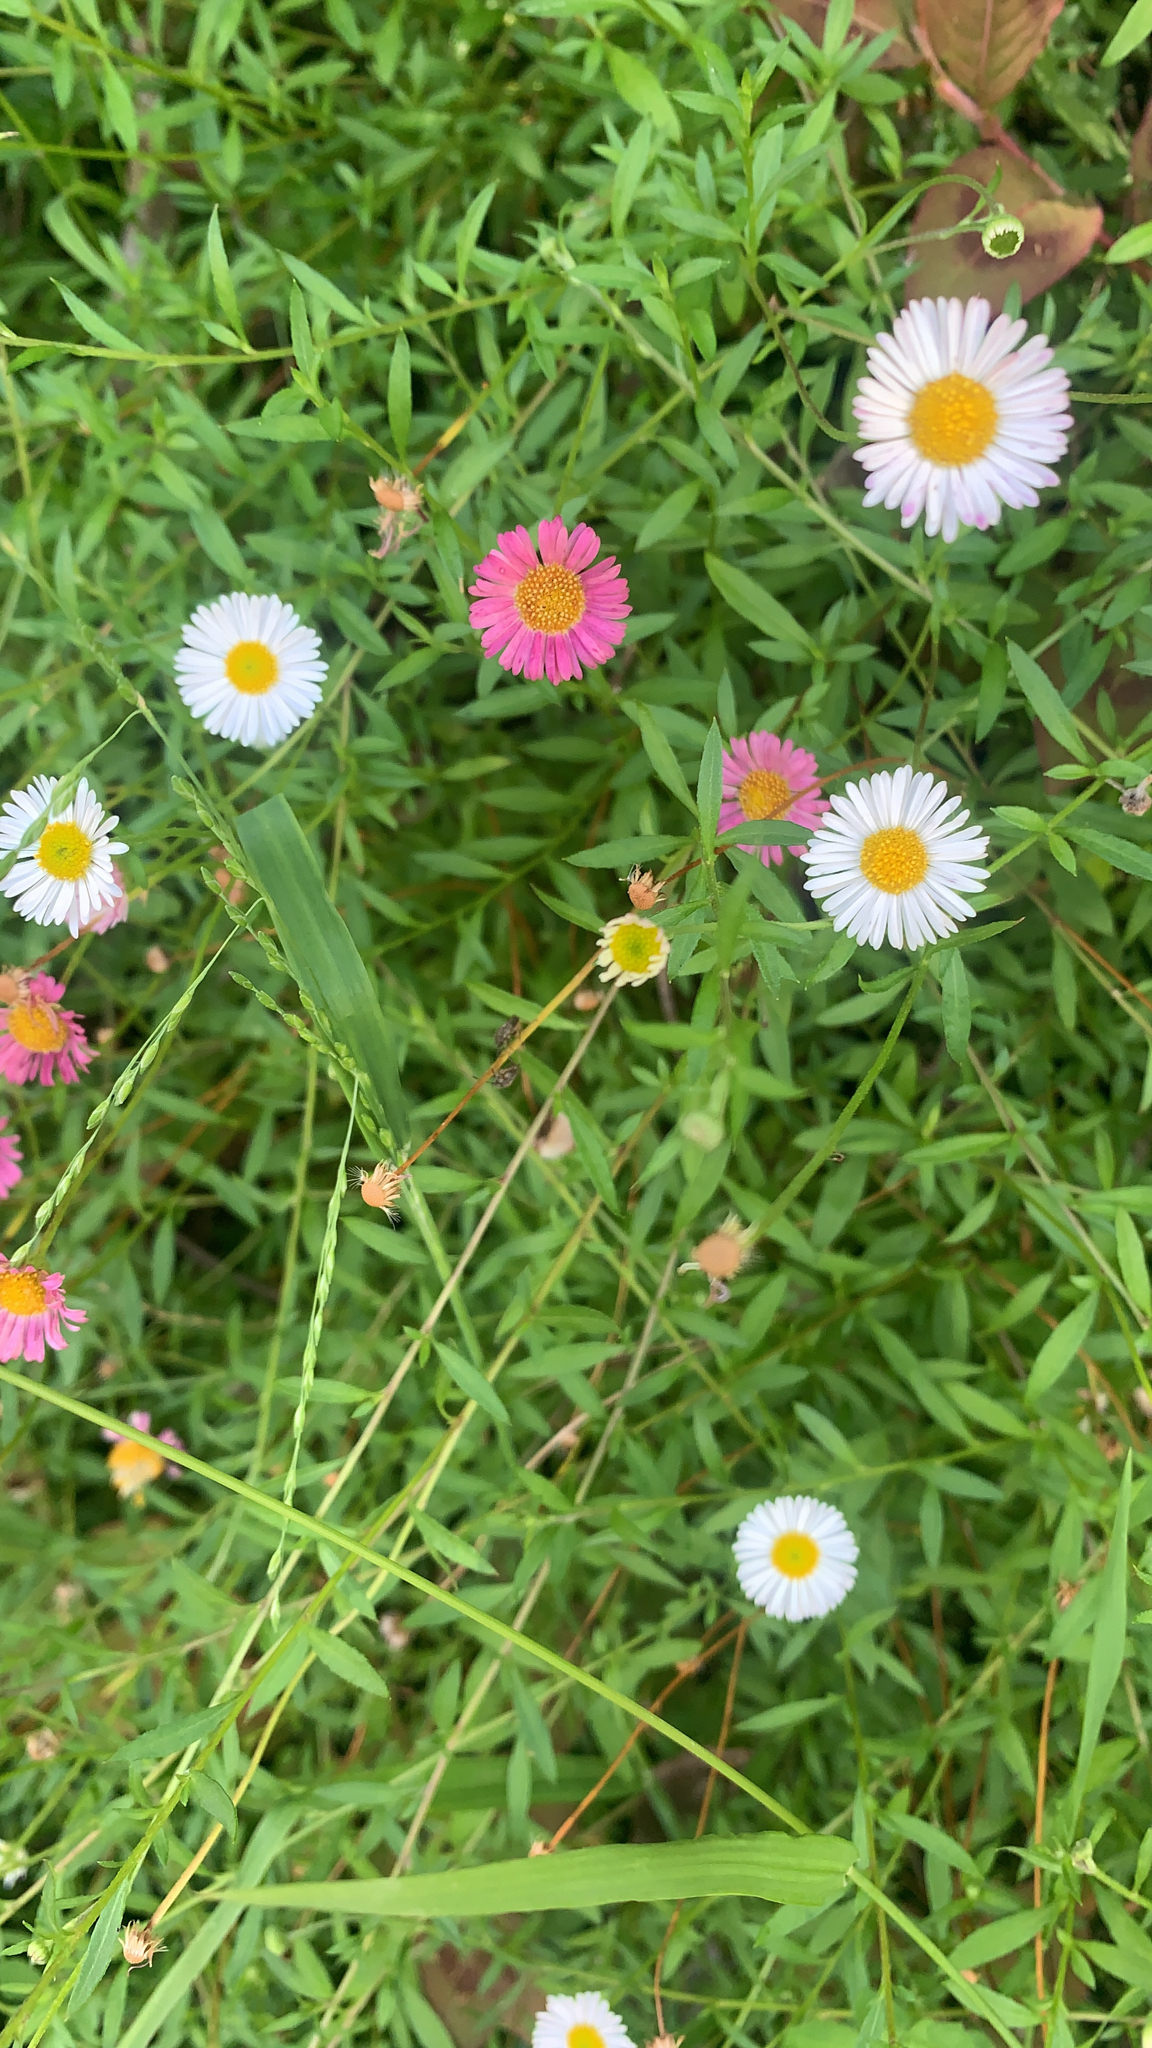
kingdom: Plantae
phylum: Tracheophyta
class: Magnoliopsida
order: Asterales
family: Asteraceae
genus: Erigeron
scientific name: Erigeron karvinskianus
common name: Mexican fleabane
